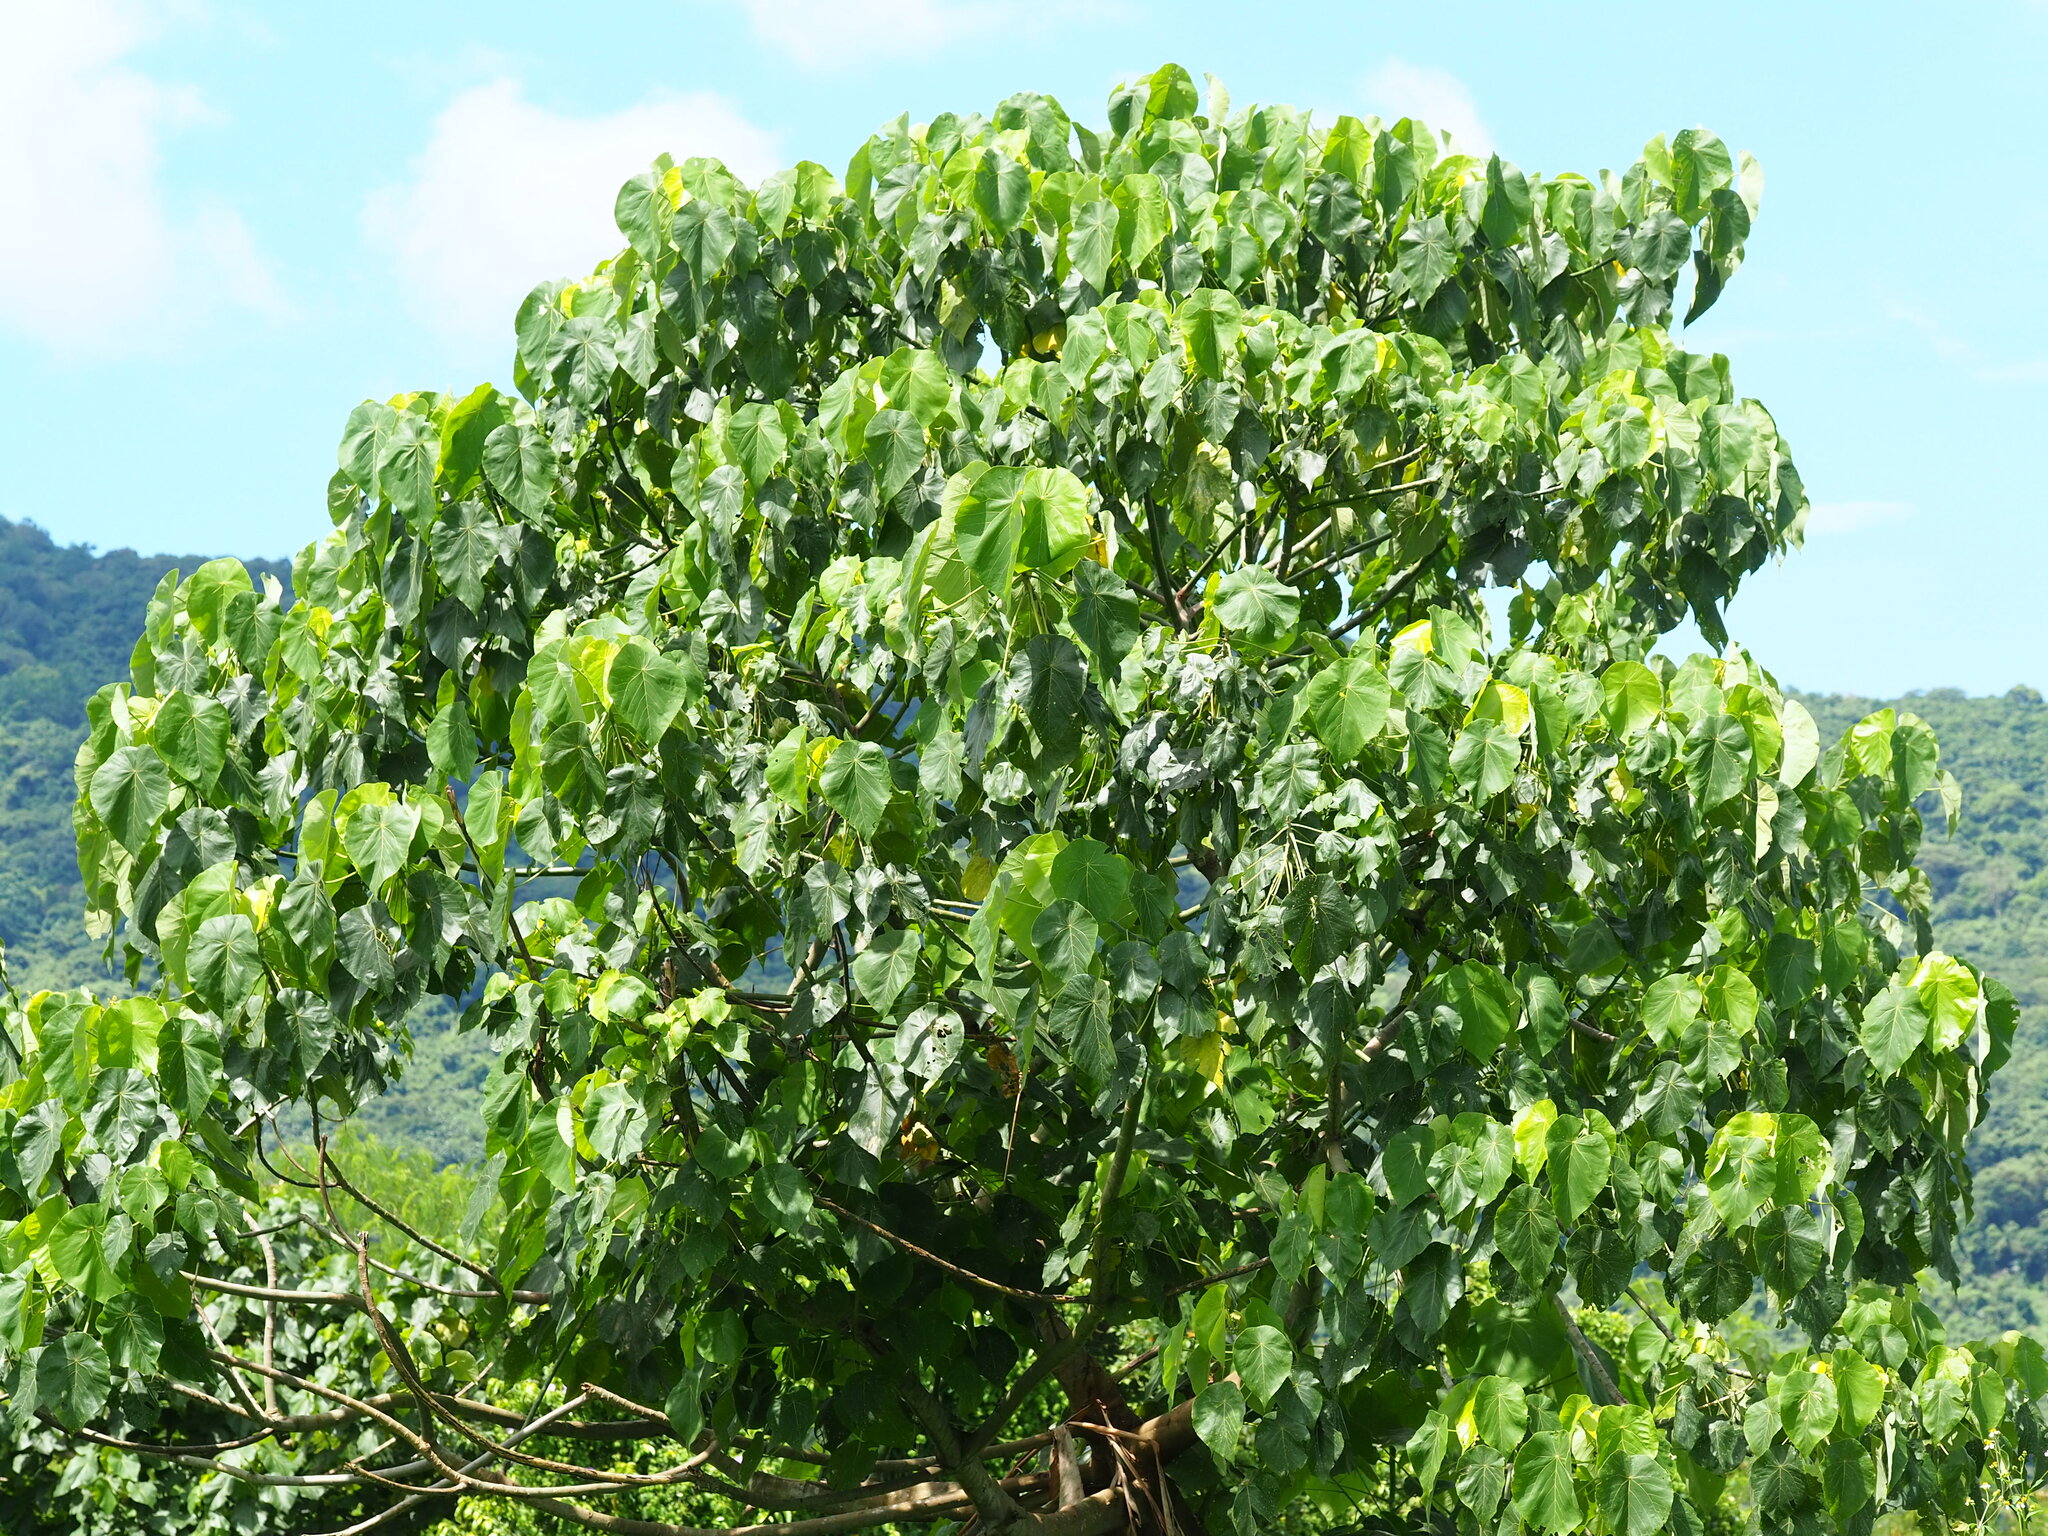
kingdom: Plantae
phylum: Tracheophyta
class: Magnoliopsida
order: Malpighiales
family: Euphorbiaceae
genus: Macaranga
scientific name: Macaranga tanarius
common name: Parasol leaf tree
